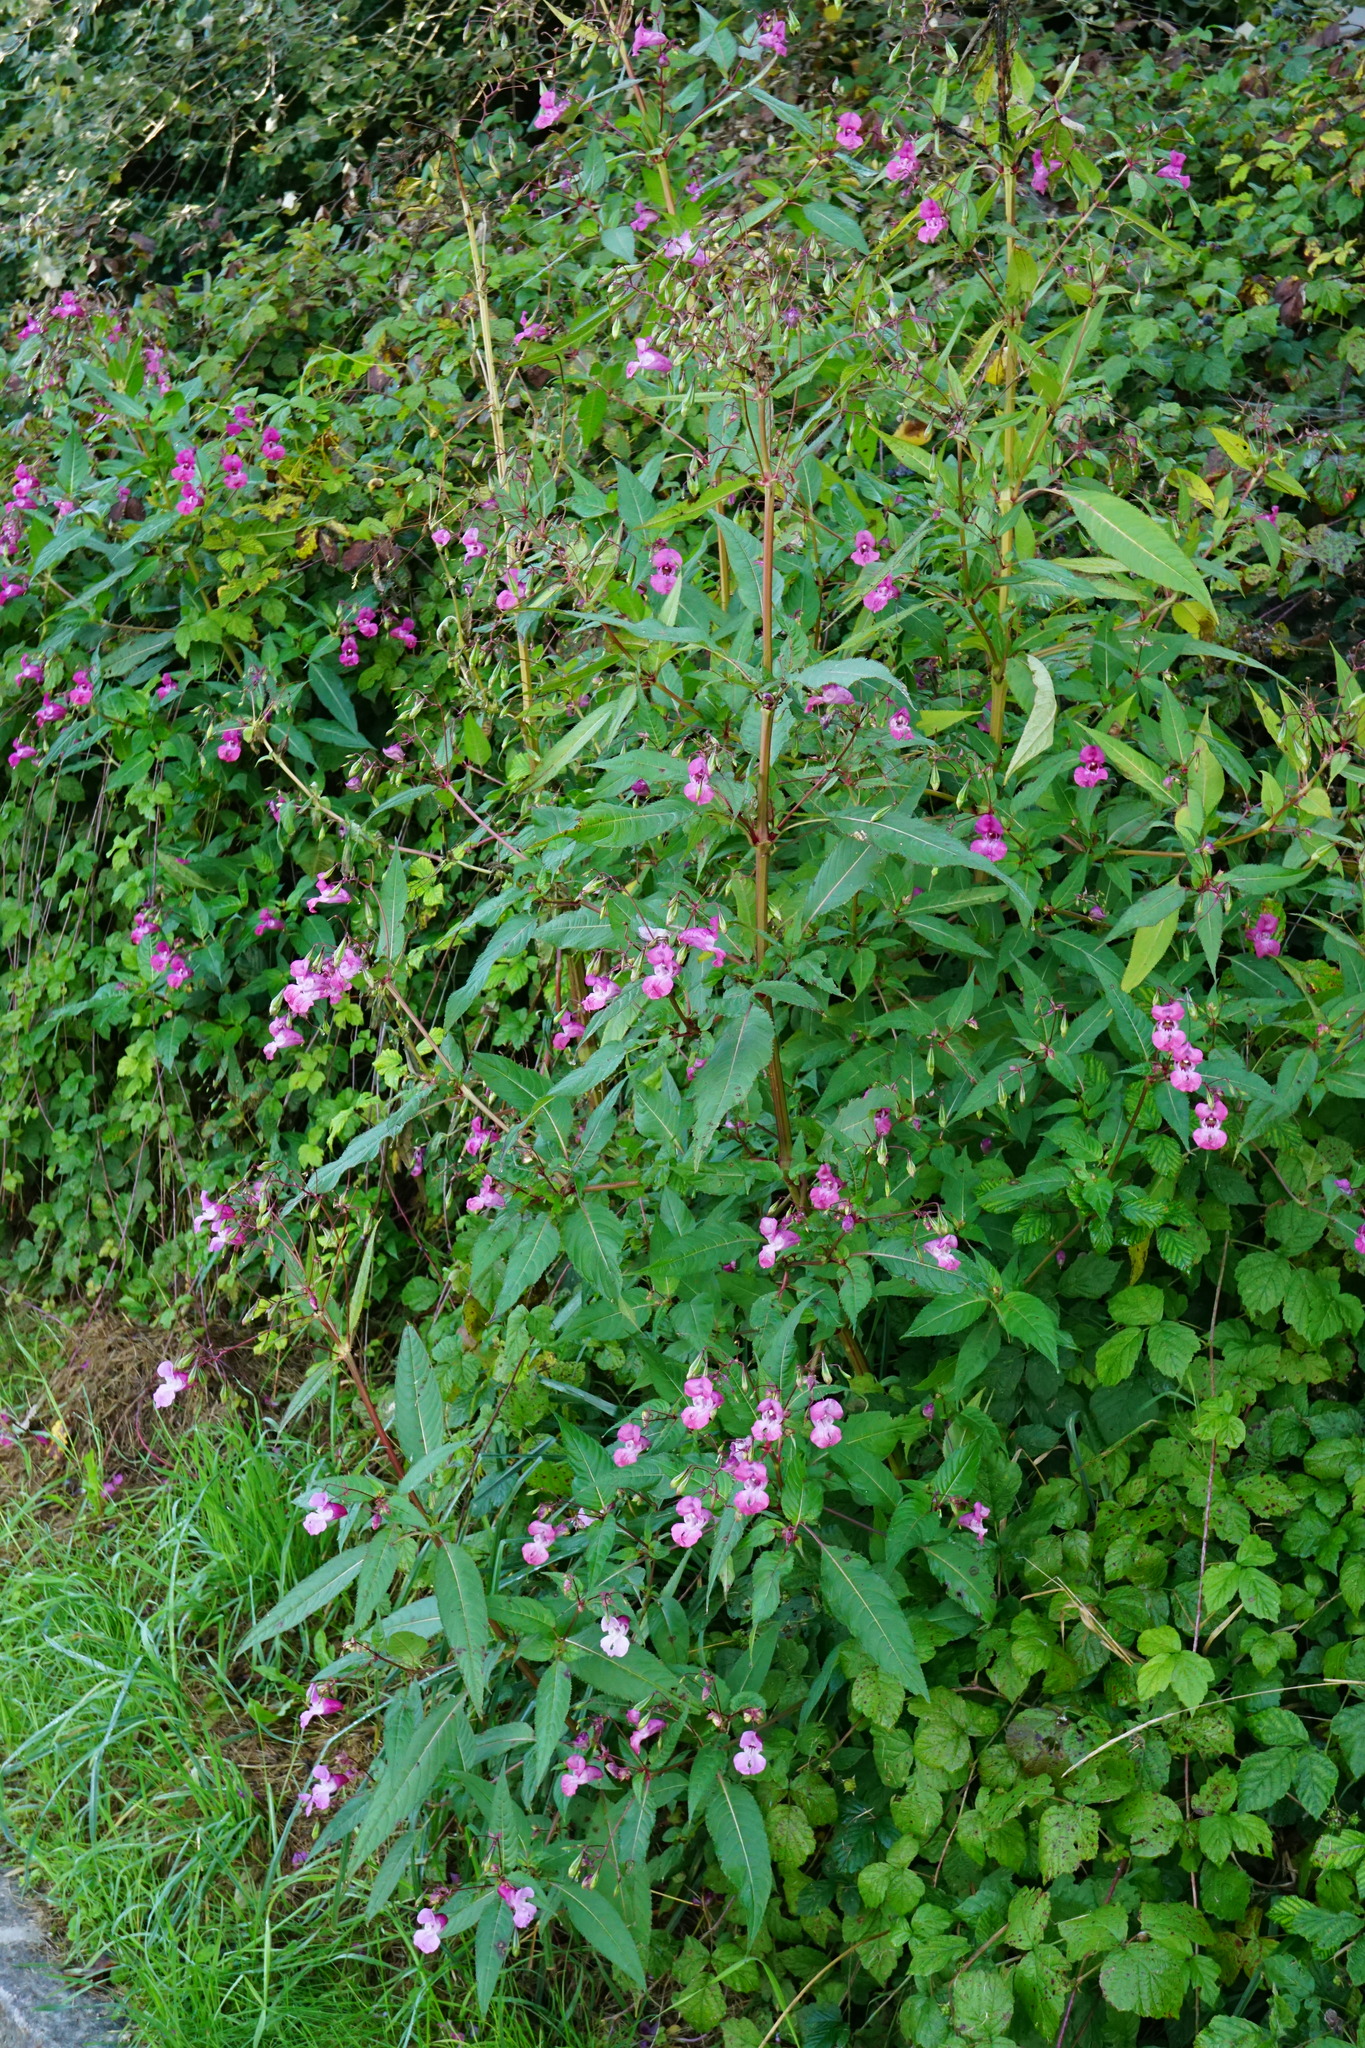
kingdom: Plantae
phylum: Tracheophyta
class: Magnoliopsida
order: Ericales
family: Balsaminaceae
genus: Impatiens
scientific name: Impatiens glandulifera
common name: Himalayan balsam
